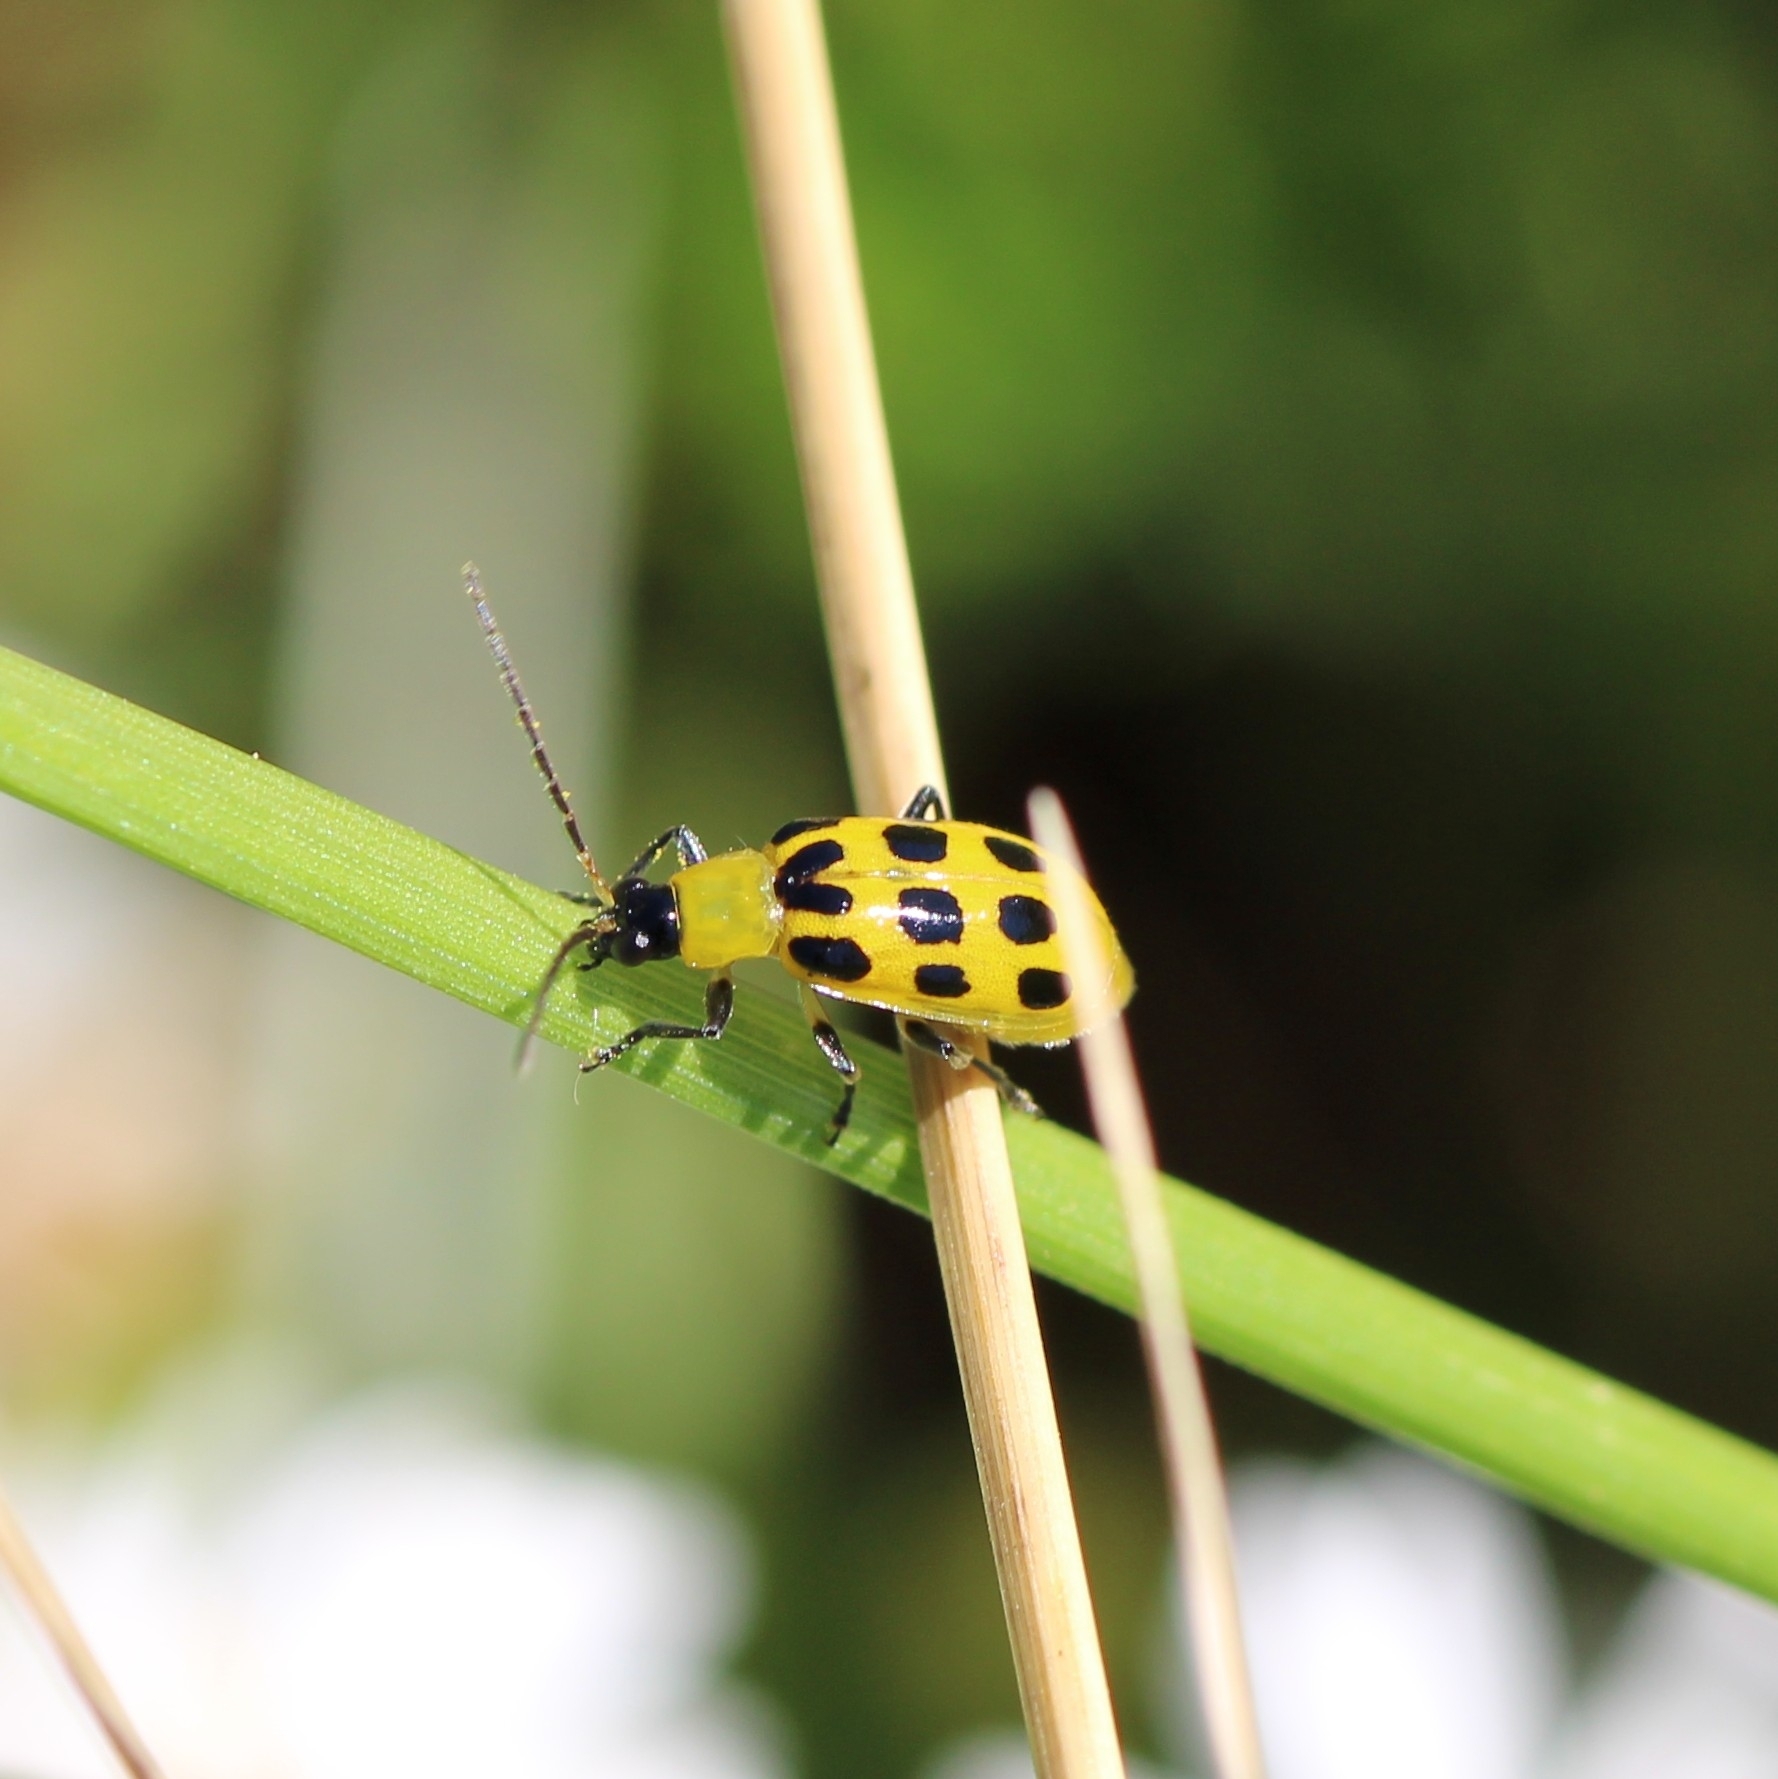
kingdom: Animalia
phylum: Arthropoda
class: Insecta
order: Coleoptera
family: Chrysomelidae
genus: Diabrotica
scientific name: Diabrotica undecimpunctata
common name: Spotted cucumber beetle
